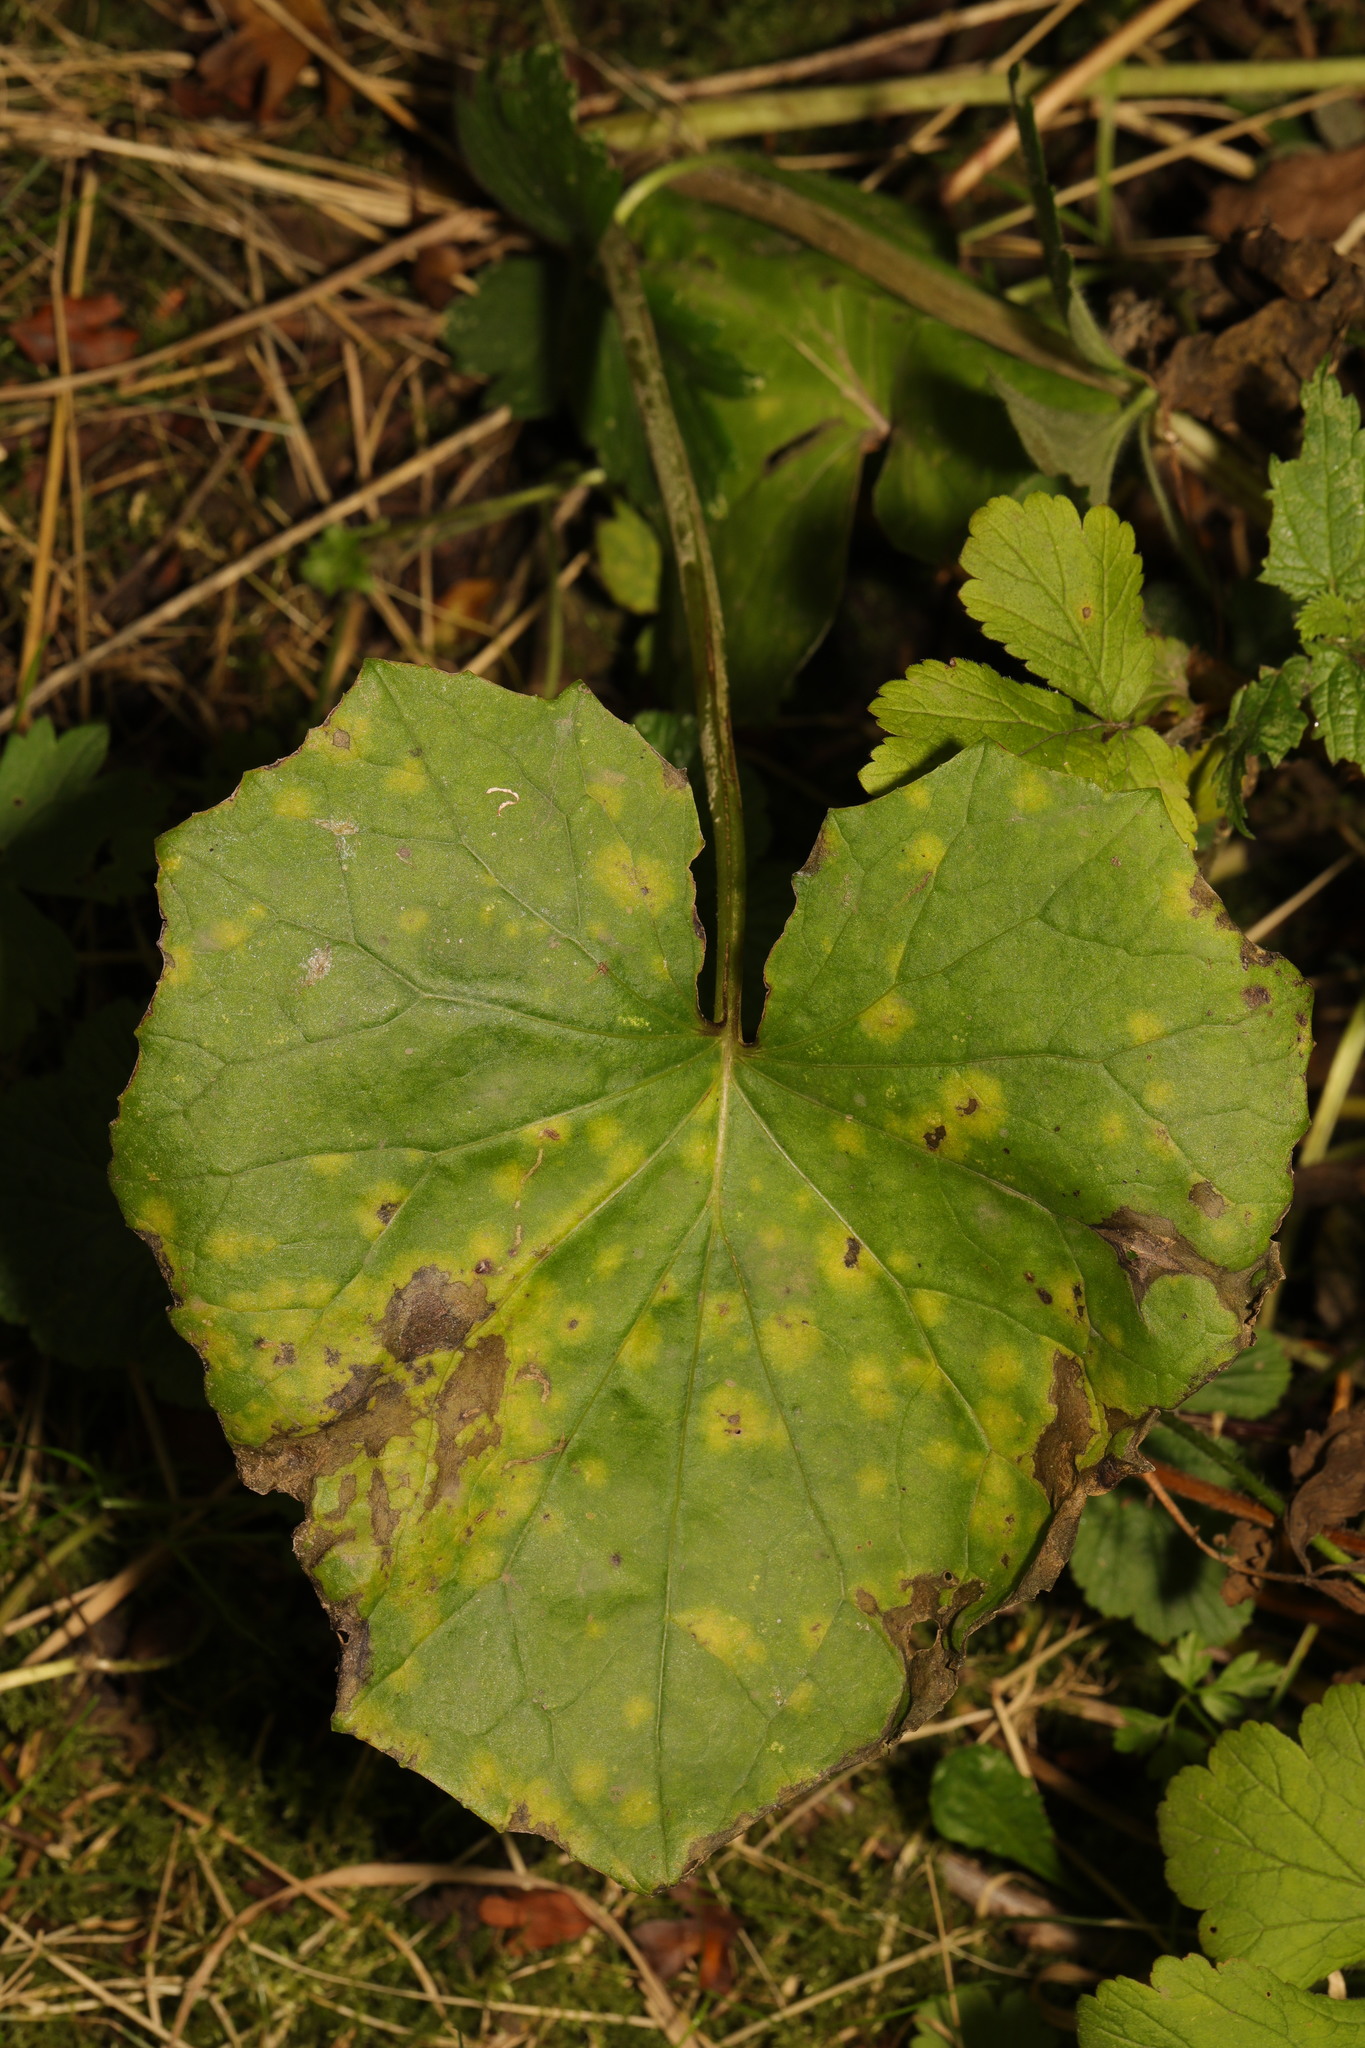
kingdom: Plantae
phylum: Tracheophyta
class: Magnoliopsida
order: Asterales
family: Asteraceae
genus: Tussilago
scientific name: Tussilago farfara
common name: Coltsfoot
